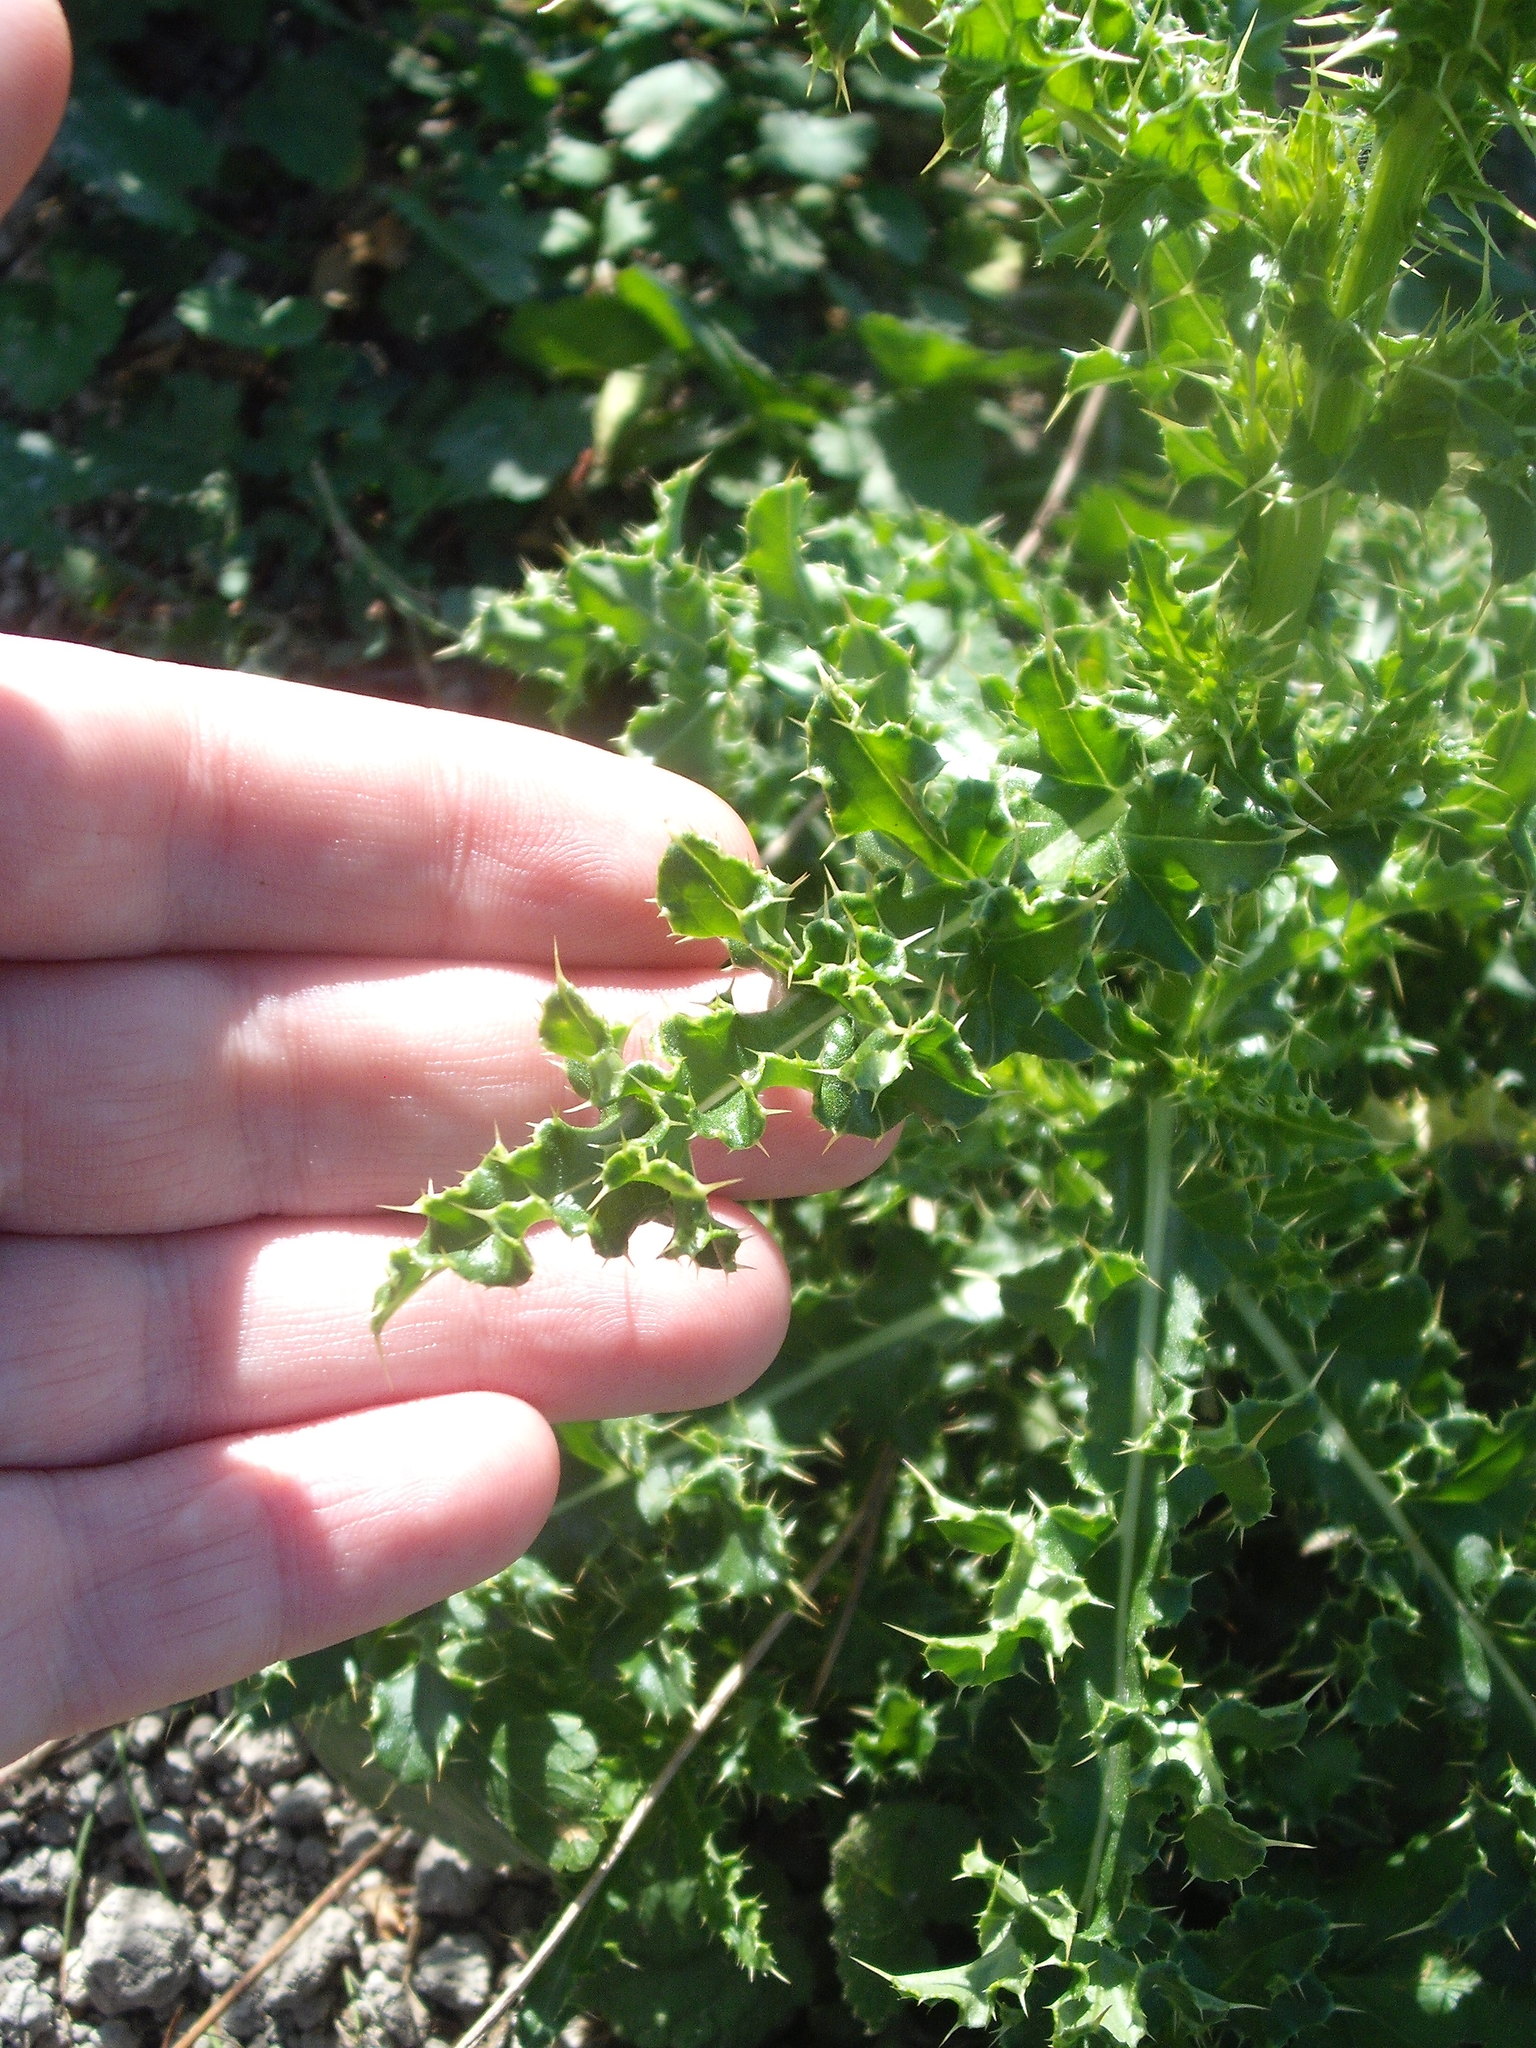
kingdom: Plantae
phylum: Tracheophyta
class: Magnoliopsida
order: Asterales
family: Asteraceae
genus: Cirsium
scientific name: Cirsium arvense
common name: Creeping thistle
